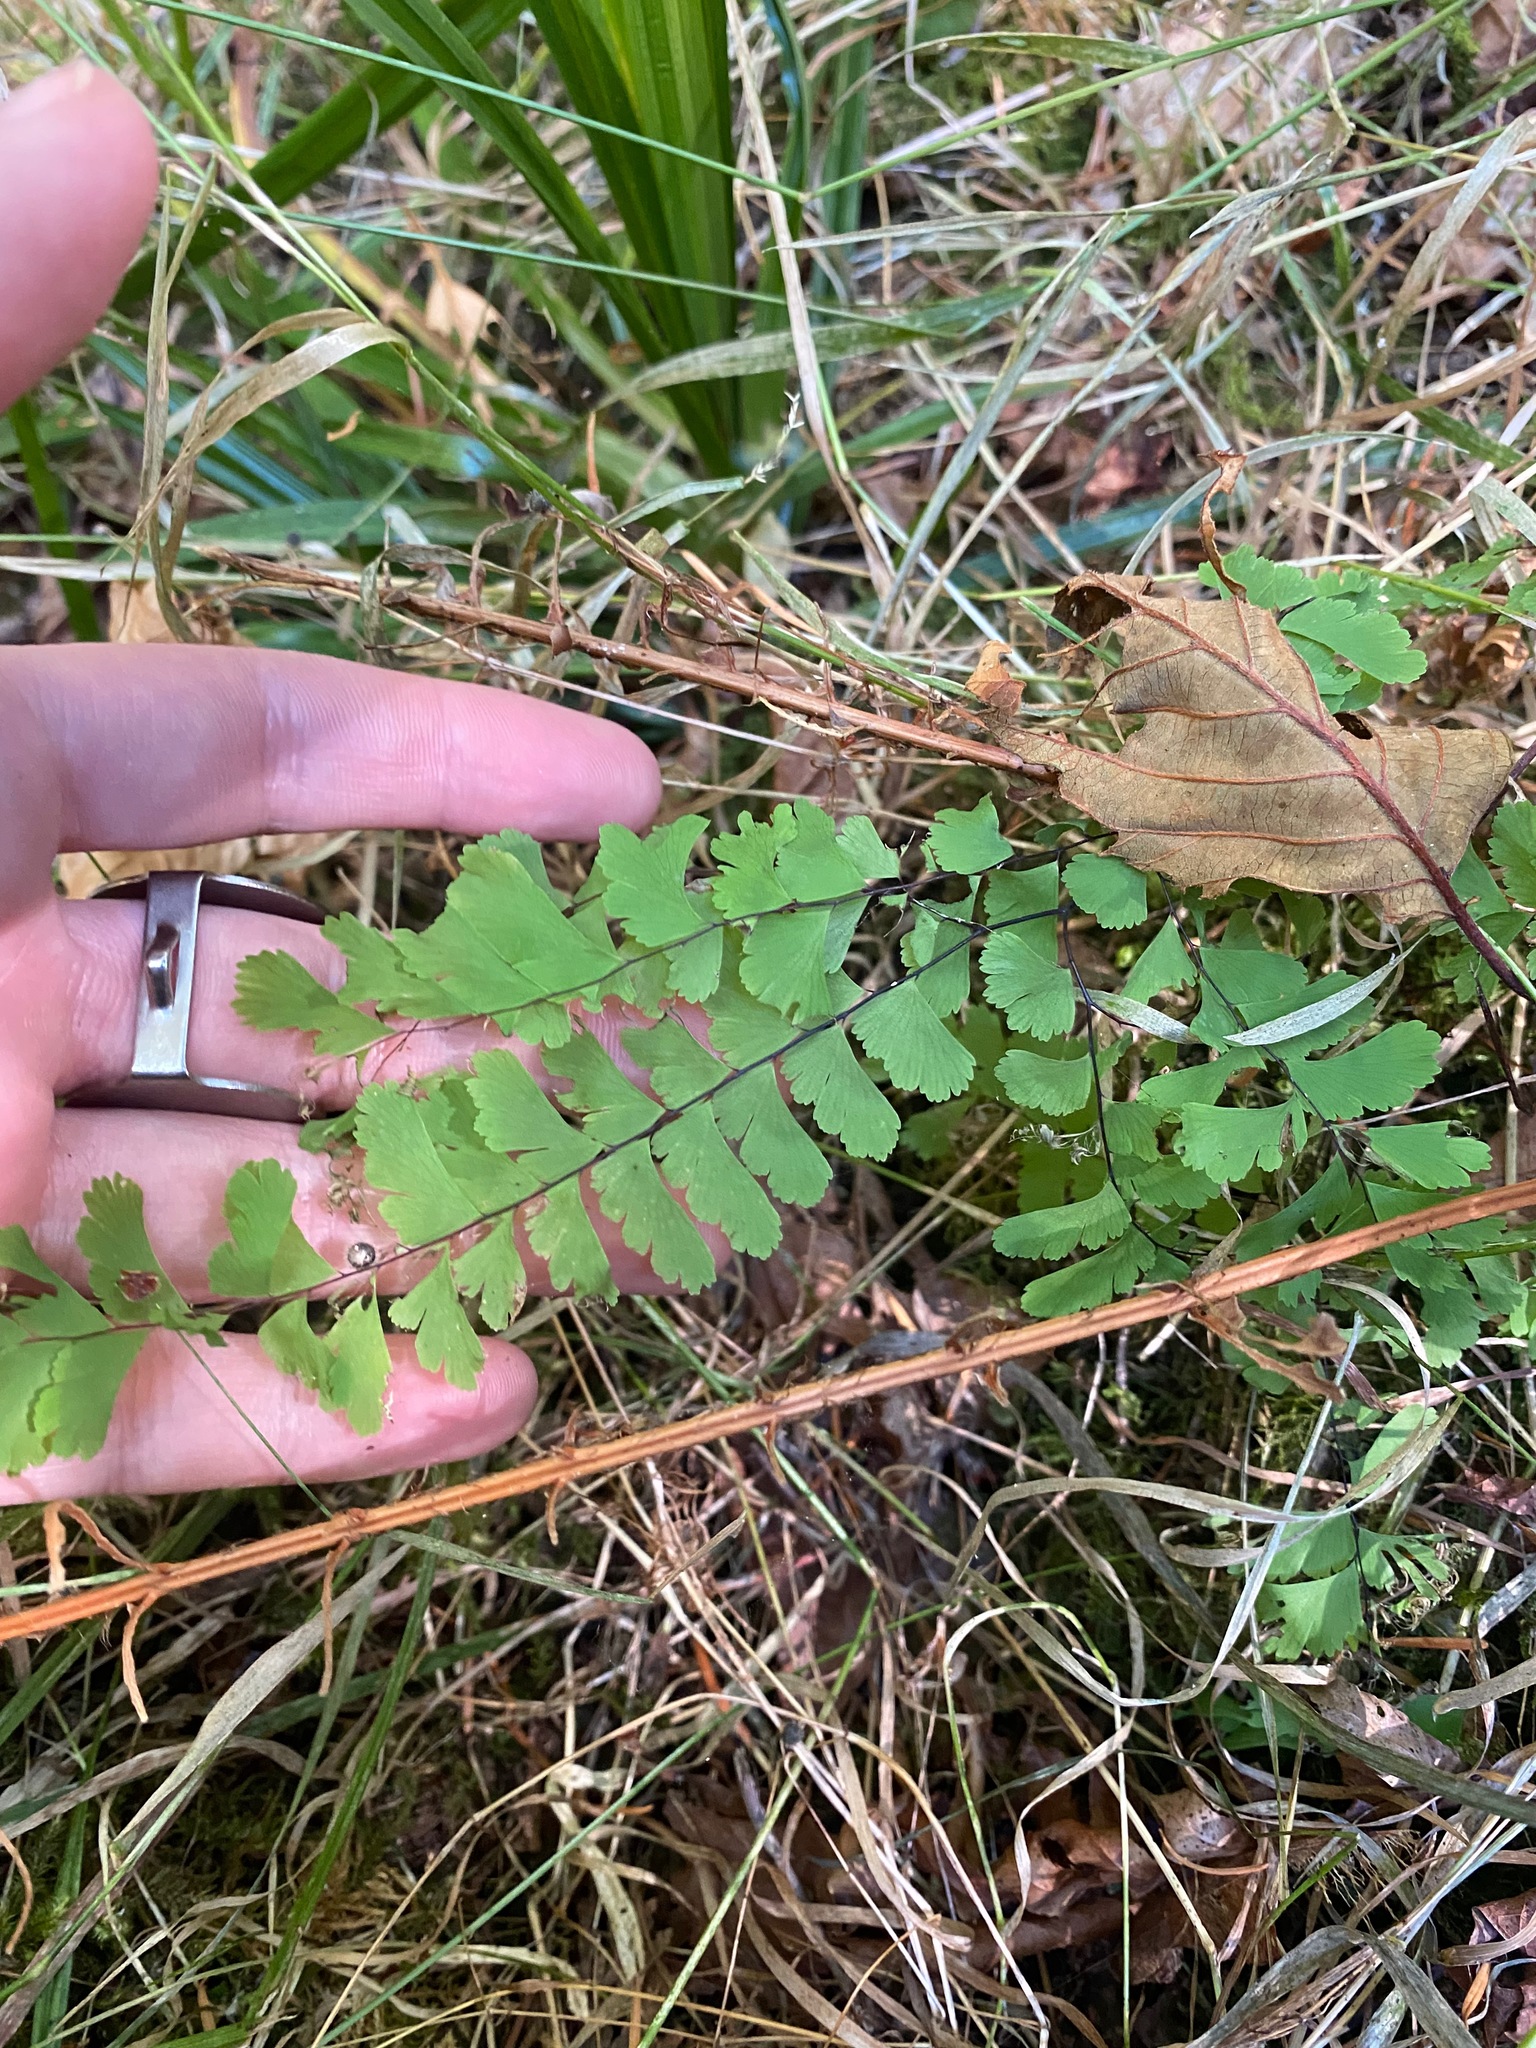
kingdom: Plantae
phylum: Tracheophyta
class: Polypodiopsida
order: Polypodiales
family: Pteridaceae
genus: Adiantum
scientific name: Adiantum aleuticum
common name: Aleutian maidenhair fern
